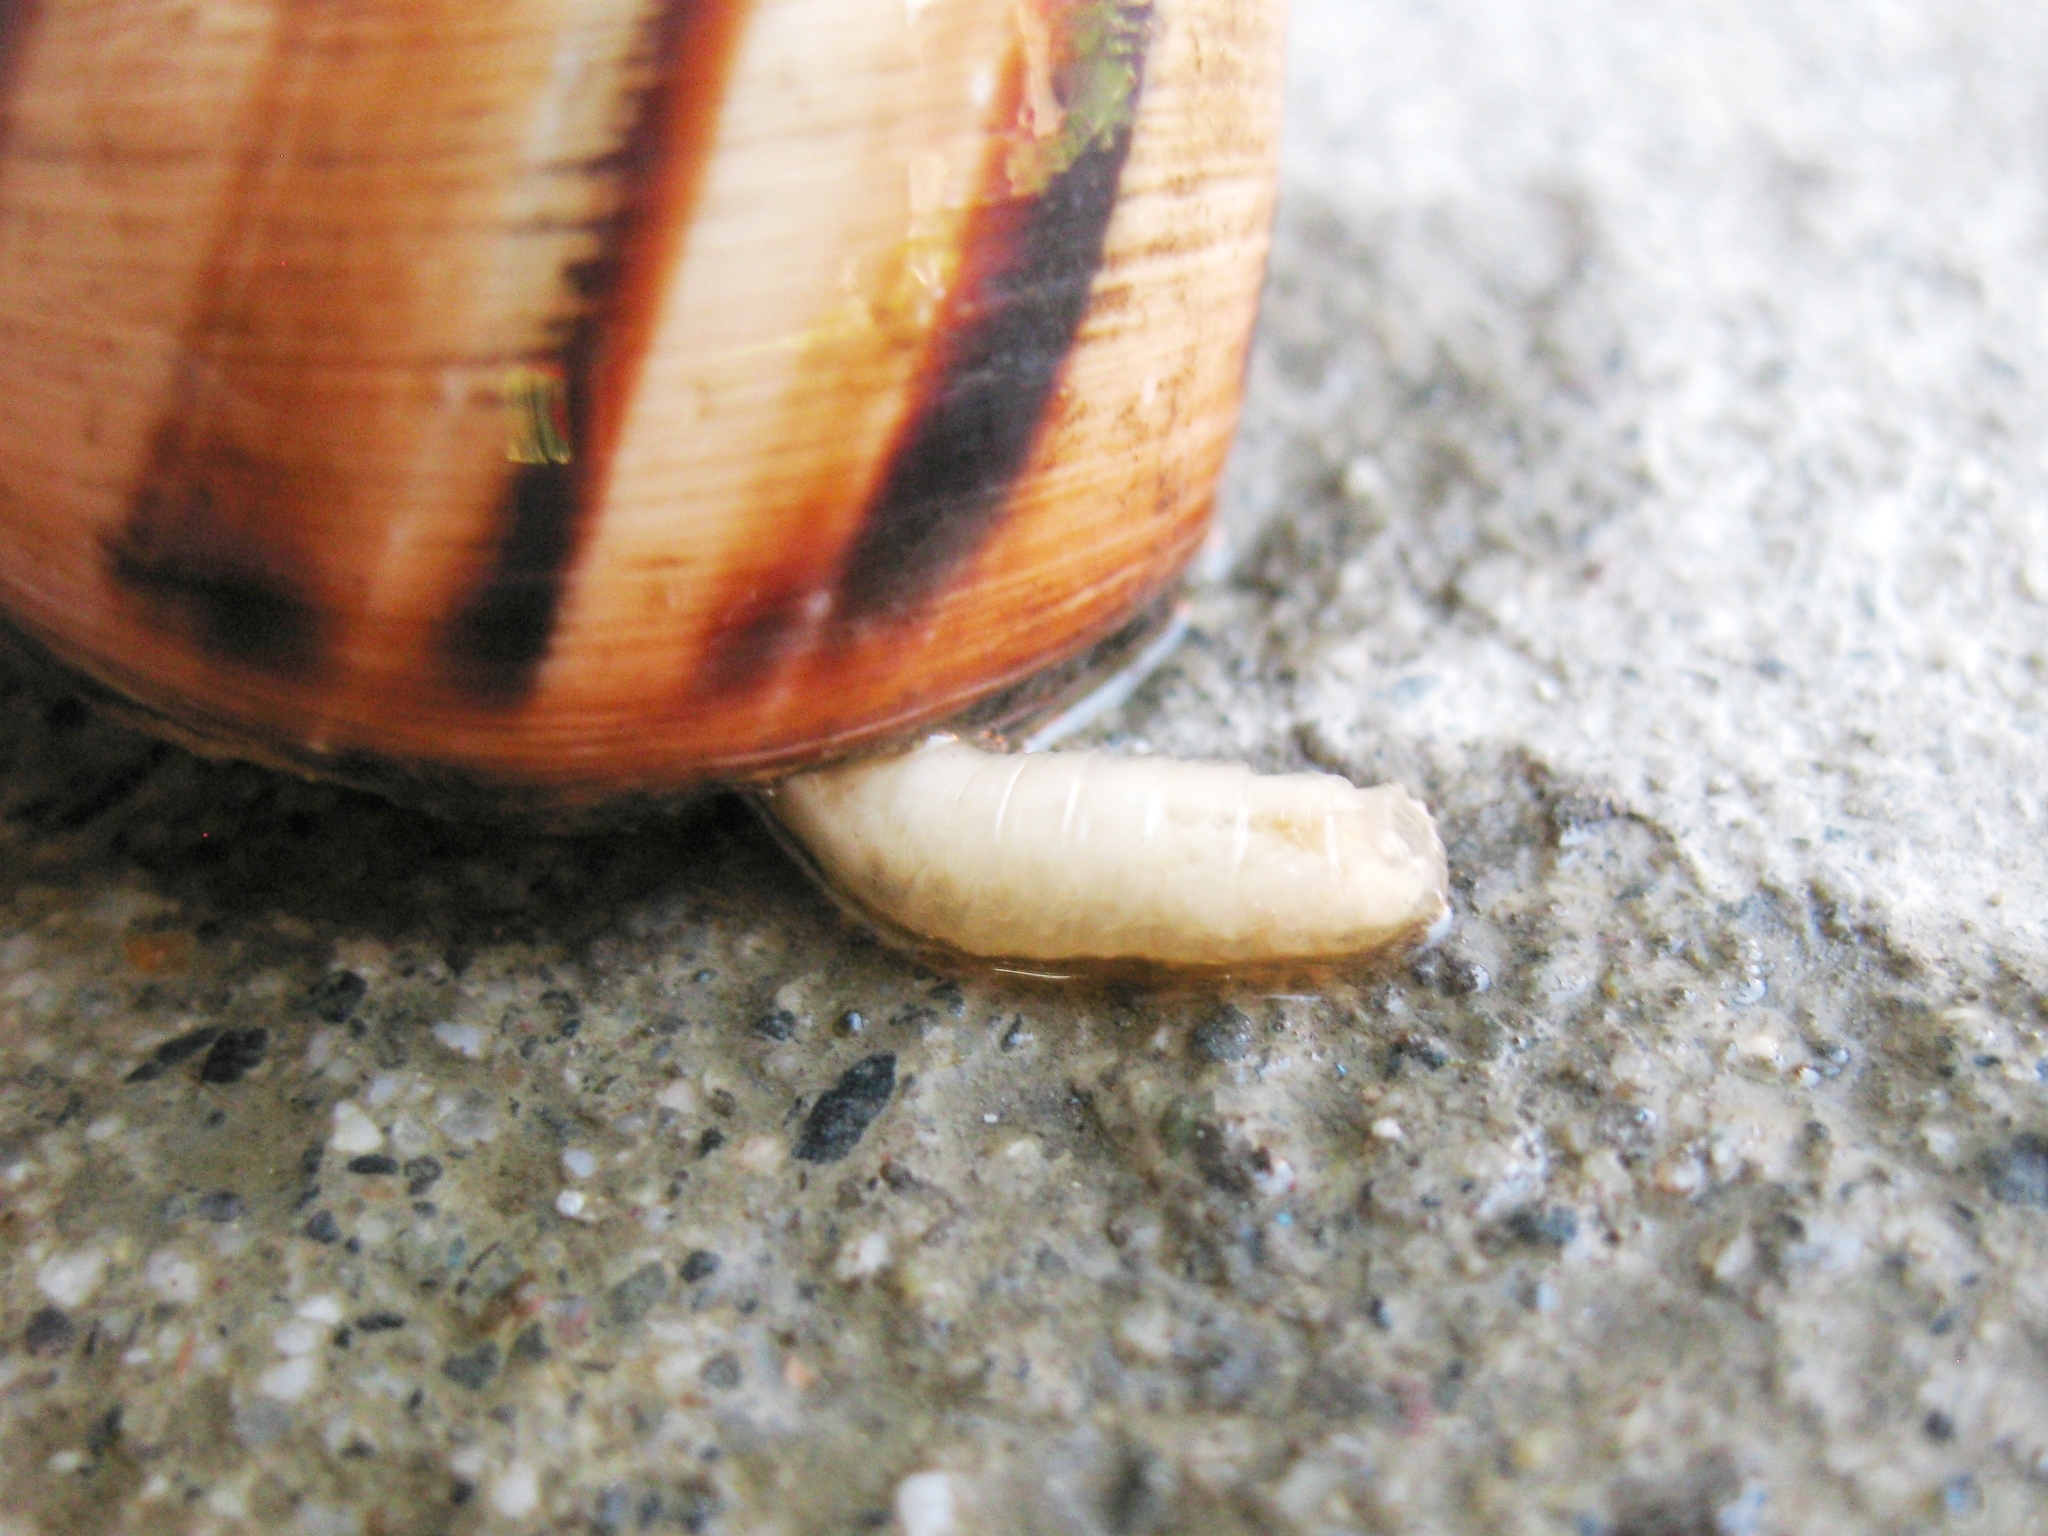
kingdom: Animalia
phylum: Mollusca
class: Gastropoda
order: Stylommatophora
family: Helicidae
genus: Helix
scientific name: Helix albescens
